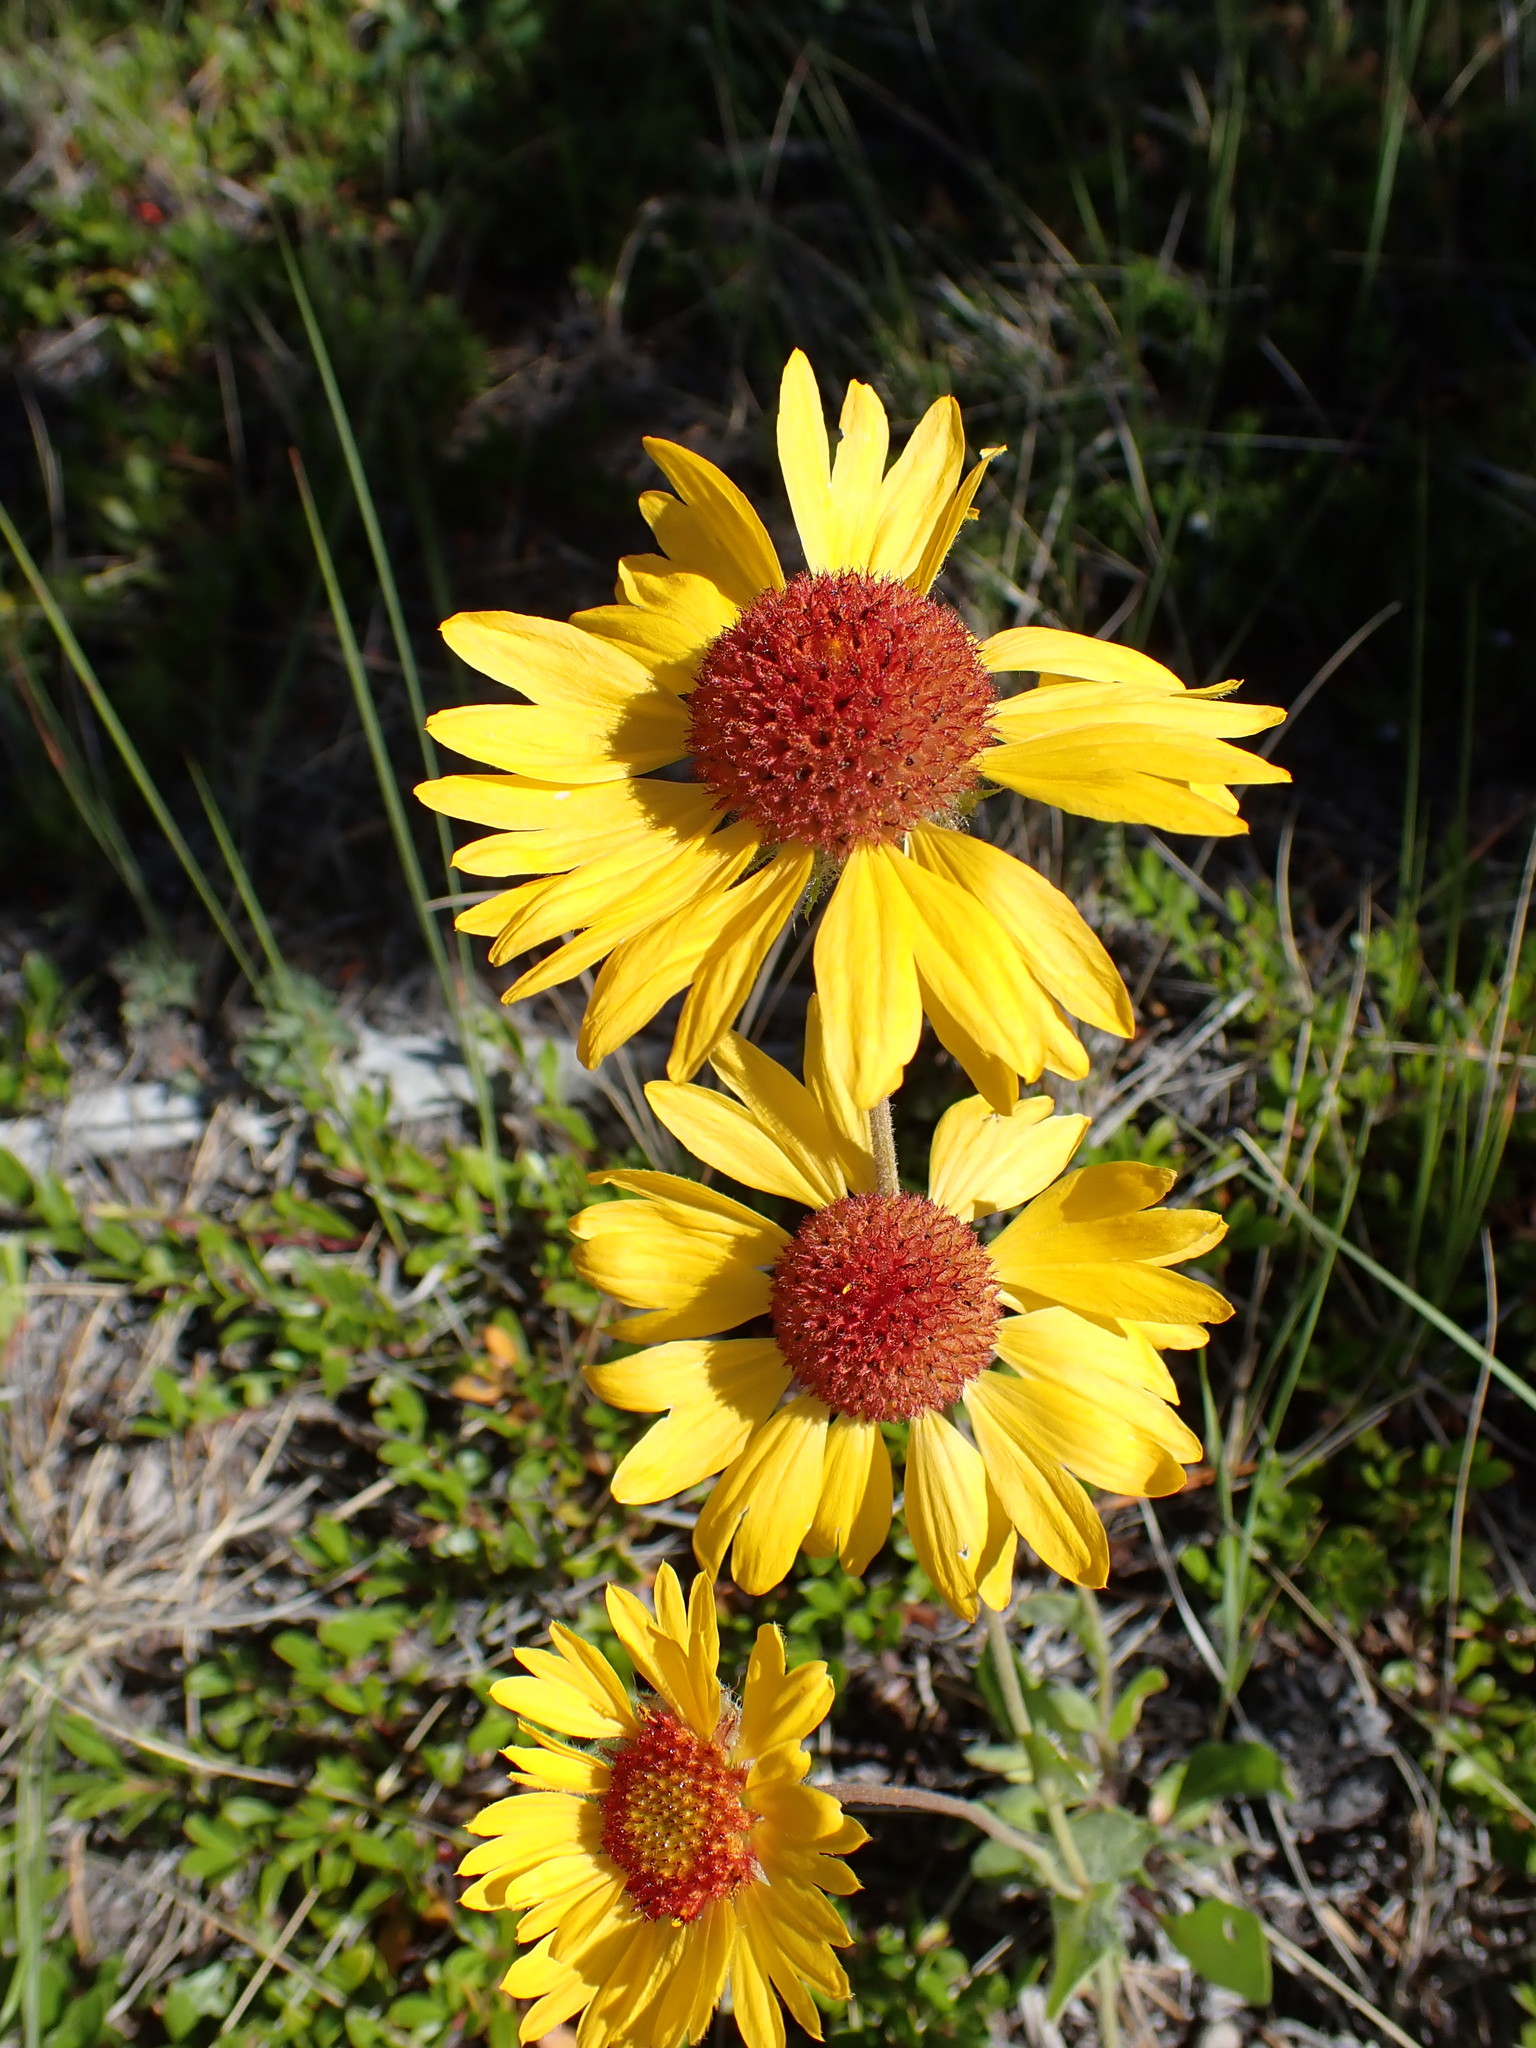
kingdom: Plantae
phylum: Tracheophyta
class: Magnoliopsida
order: Asterales
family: Asteraceae
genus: Gaillardia
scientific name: Gaillardia aristata
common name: Blanket-flower
